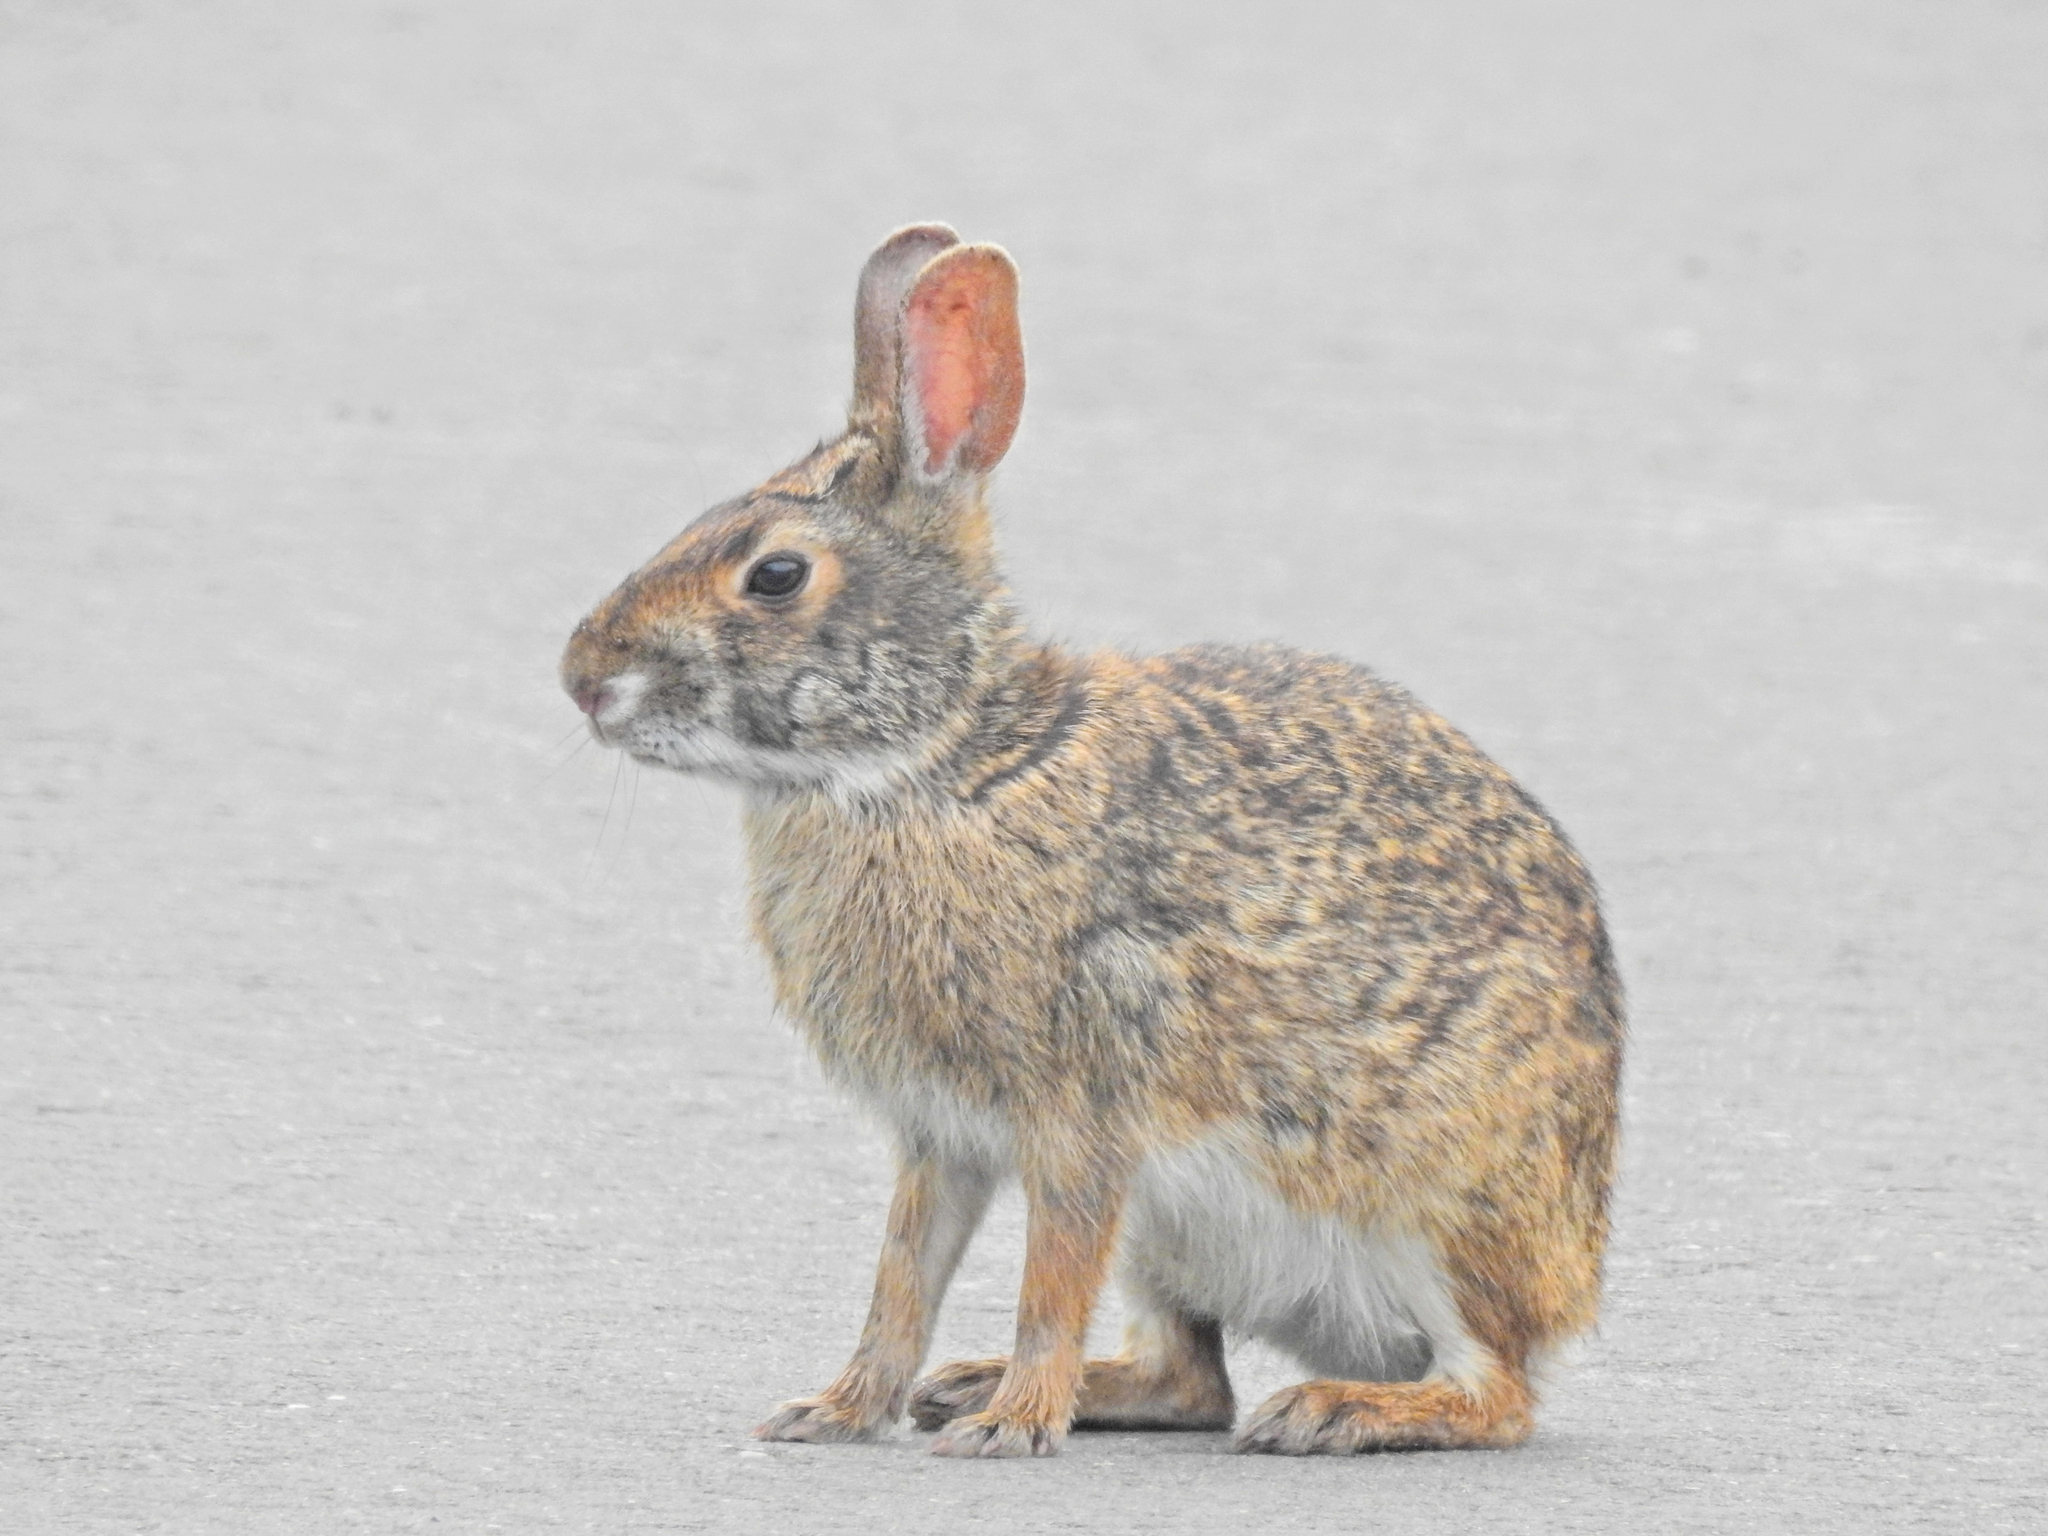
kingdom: Animalia
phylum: Chordata
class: Mammalia
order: Lagomorpha
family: Leporidae
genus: Sylvilagus
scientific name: Sylvilagus aquaticus
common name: Swamp rabbit
